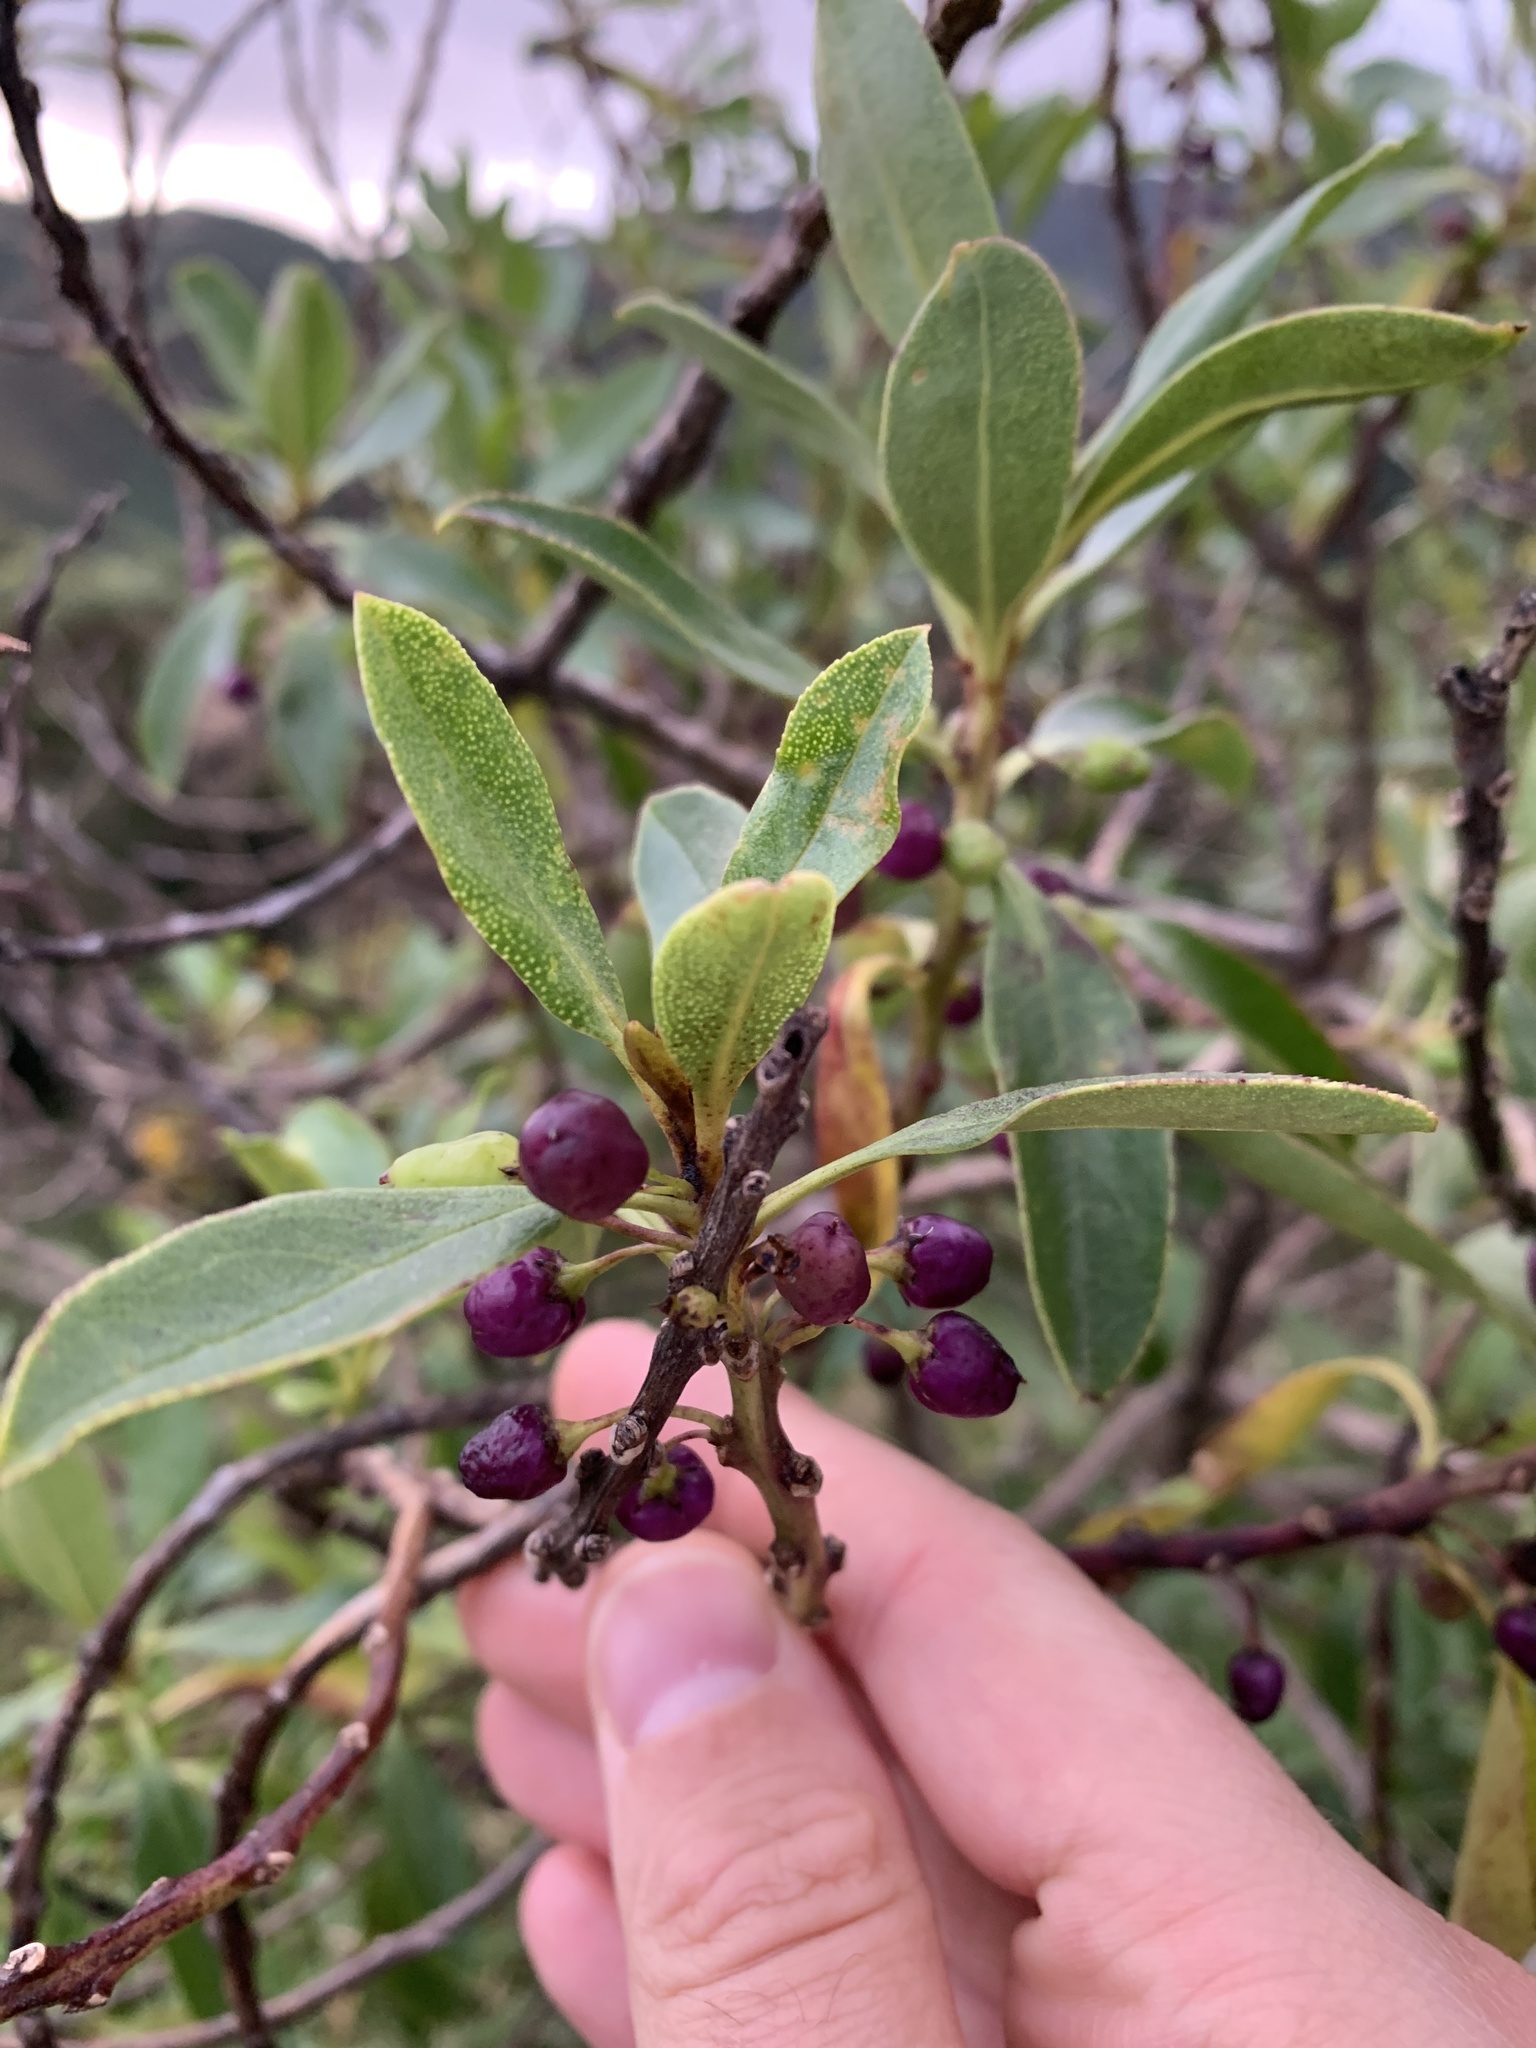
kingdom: Plantae
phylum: Tracheophyta
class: Magnoliopsida
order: Lamiales
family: Scrophulariaceae
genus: Myoporum
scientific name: Myoporum laetum
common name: Ngaio tree
